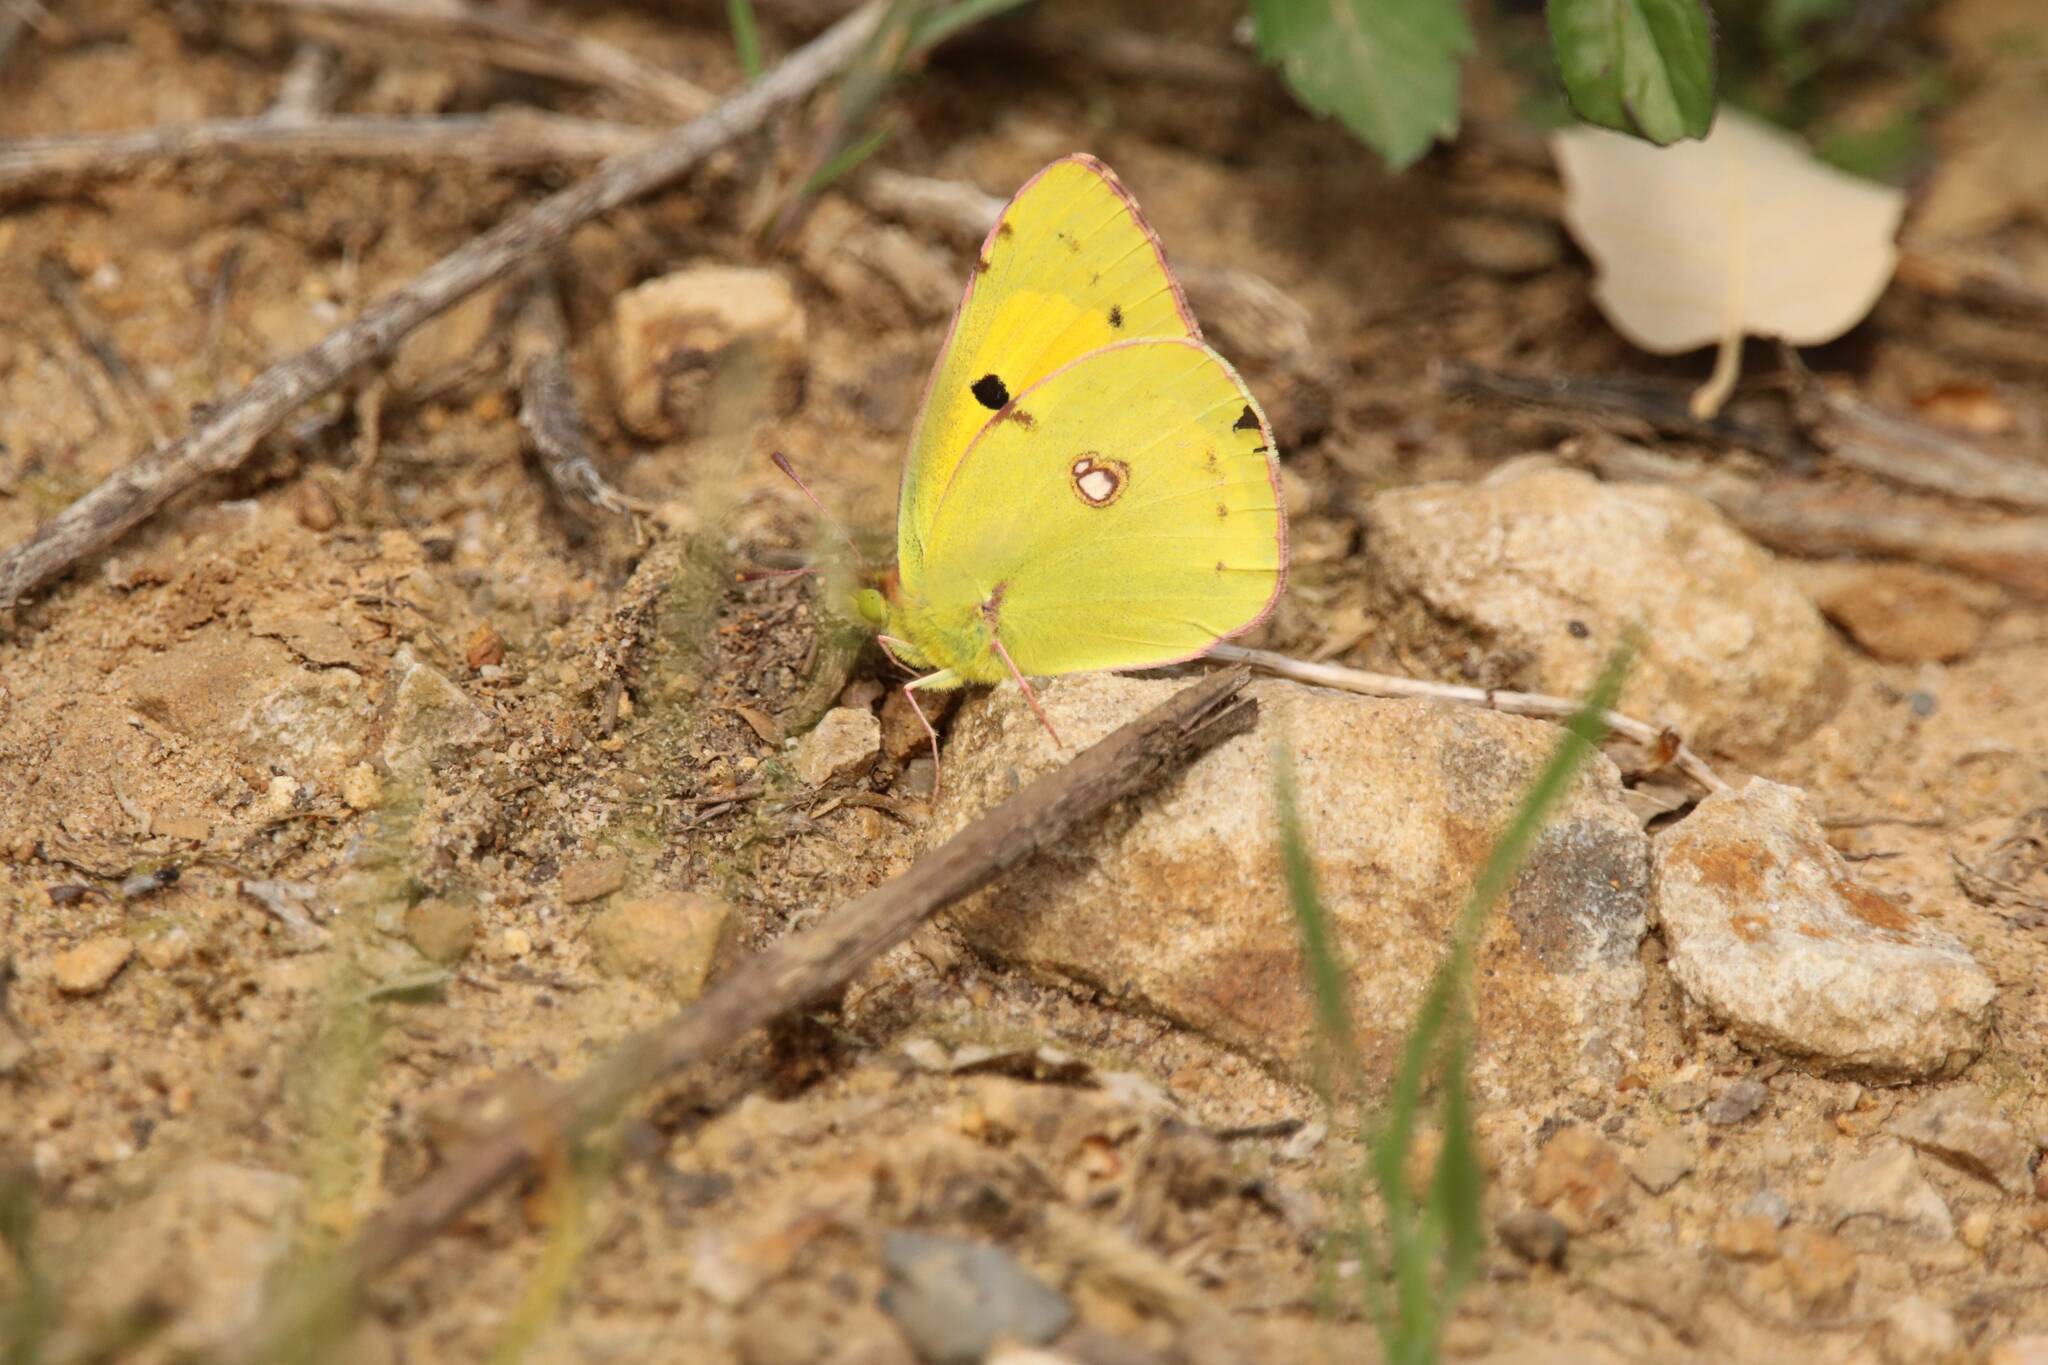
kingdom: Animalia
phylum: Arthropoda
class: Insecta
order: Lepidoptera
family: Pieridae
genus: Colias
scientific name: Colias croceus
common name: Clouded yellow
